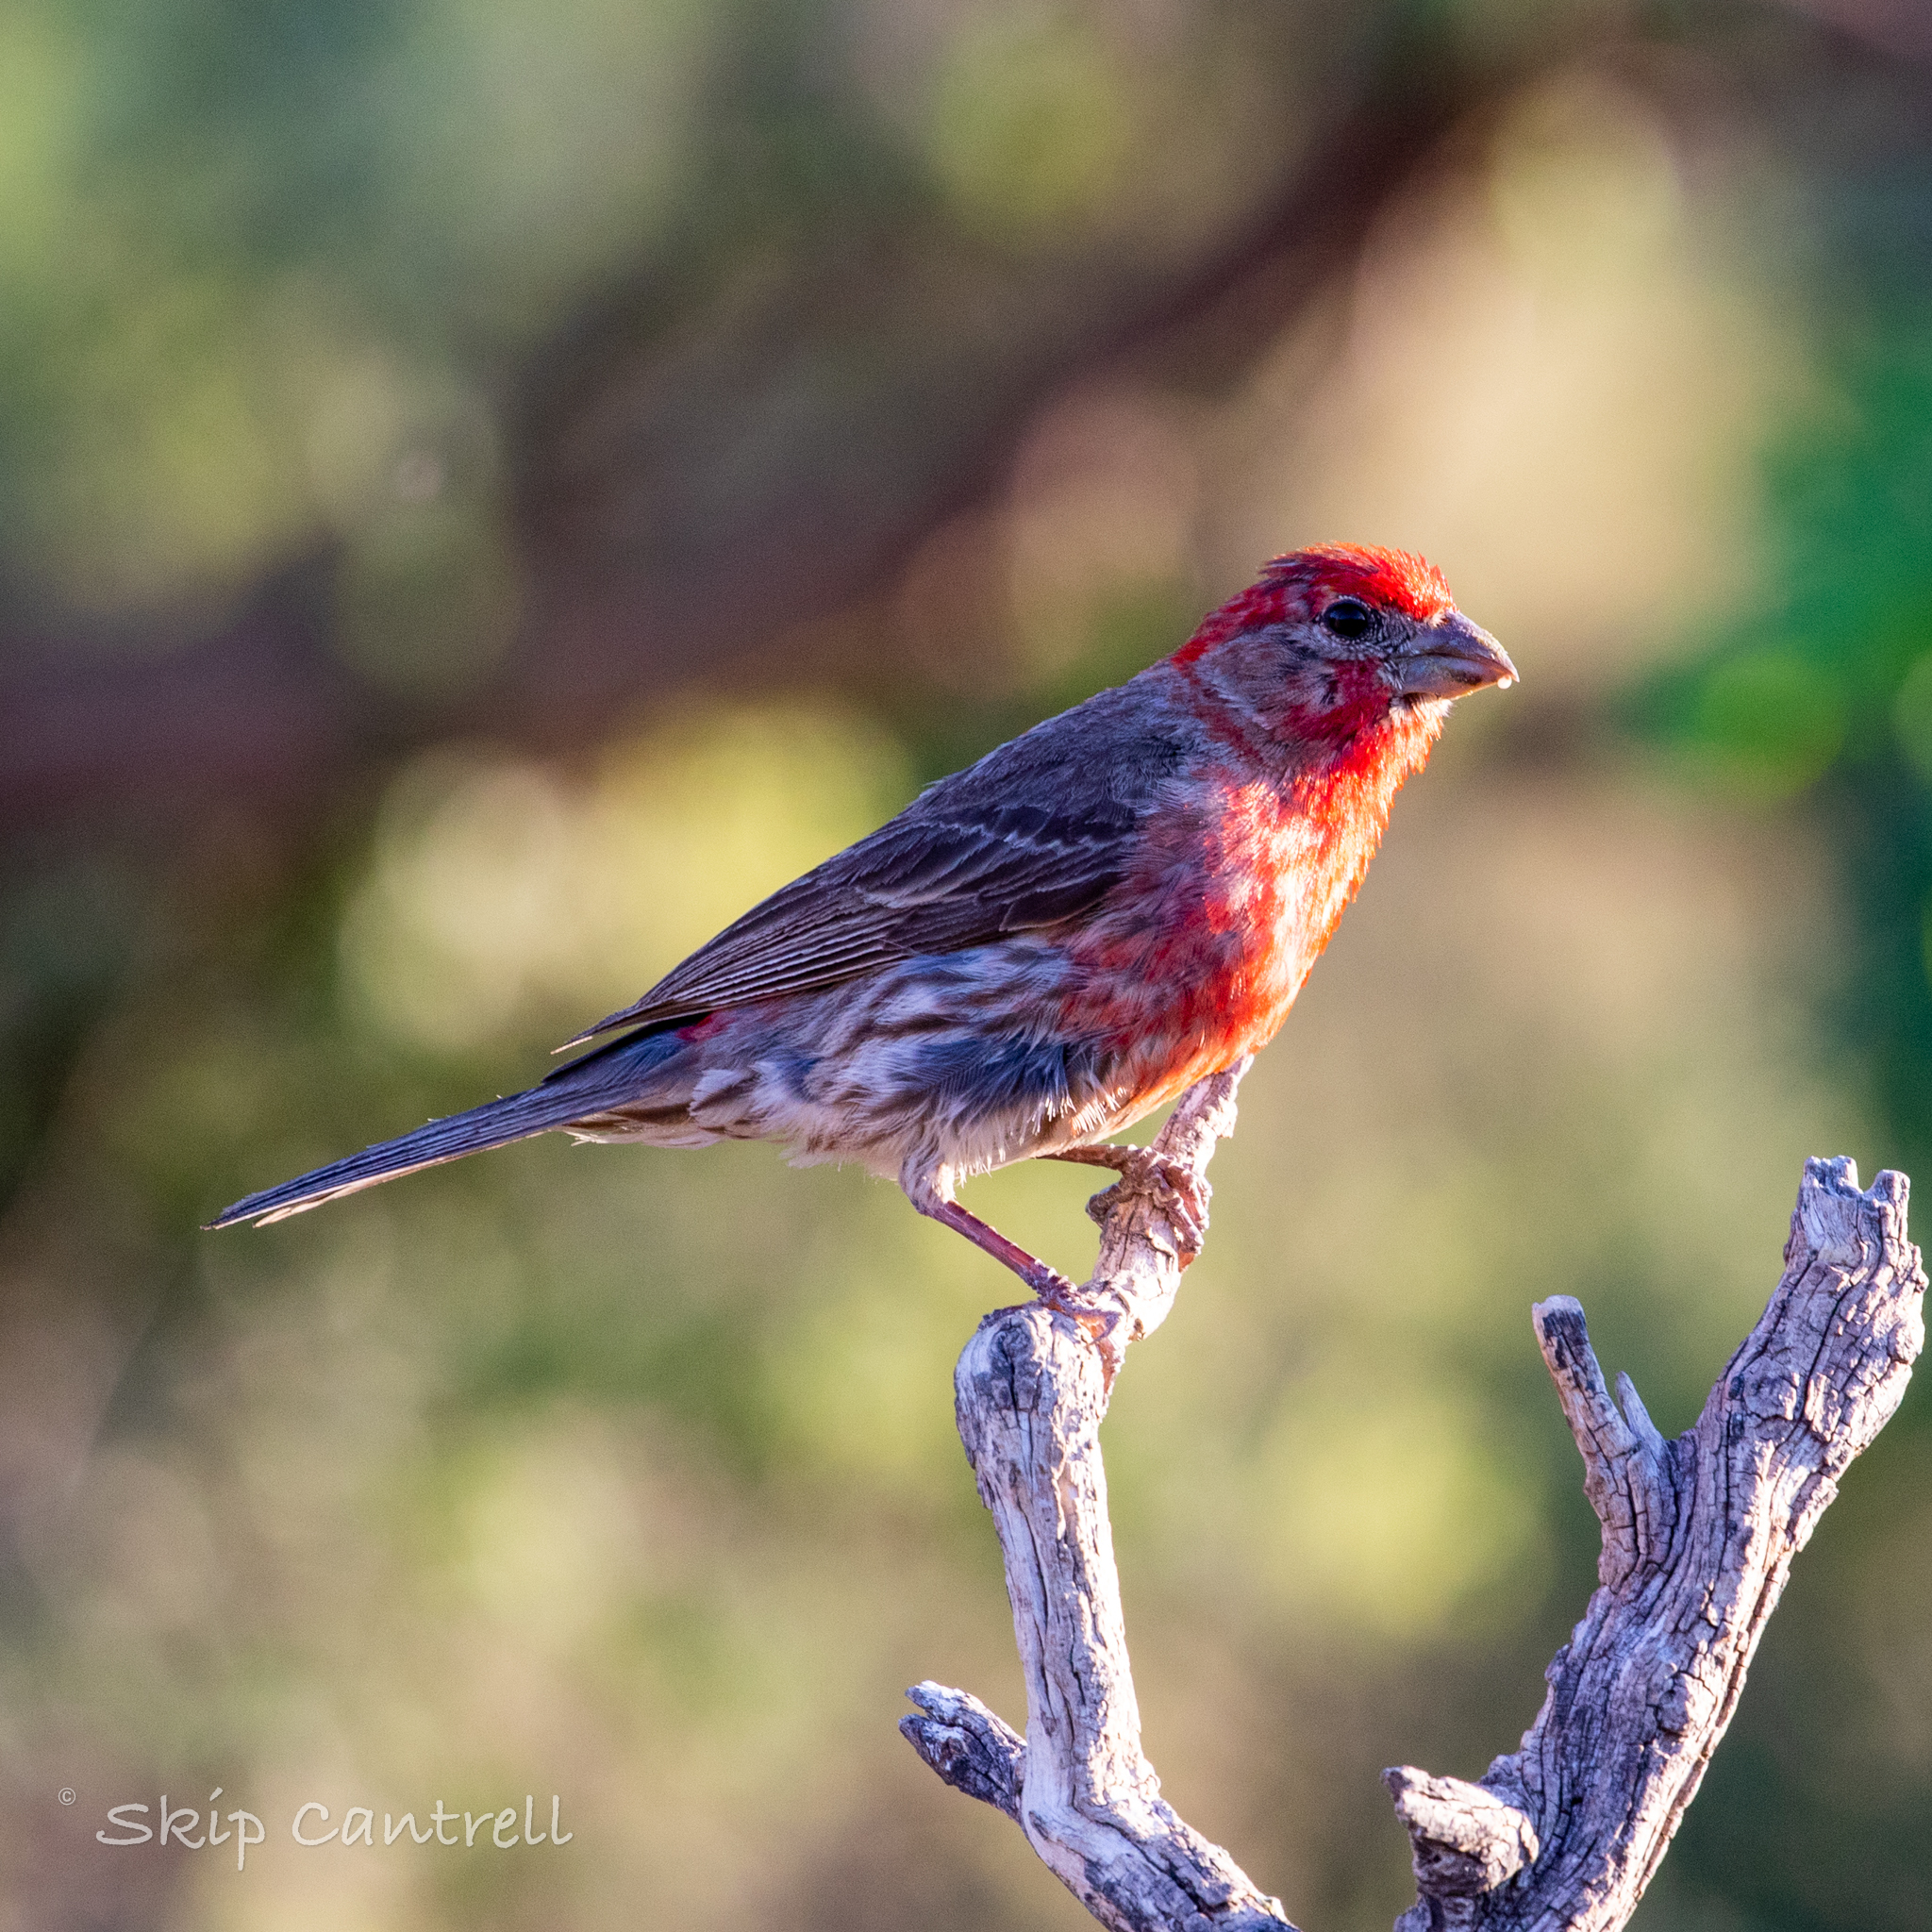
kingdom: Animalia
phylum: Chordata
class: Aves
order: Passeriformes
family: Fringillidae
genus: Haemorhous
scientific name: Haemorhous mexicanus
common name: House finch
